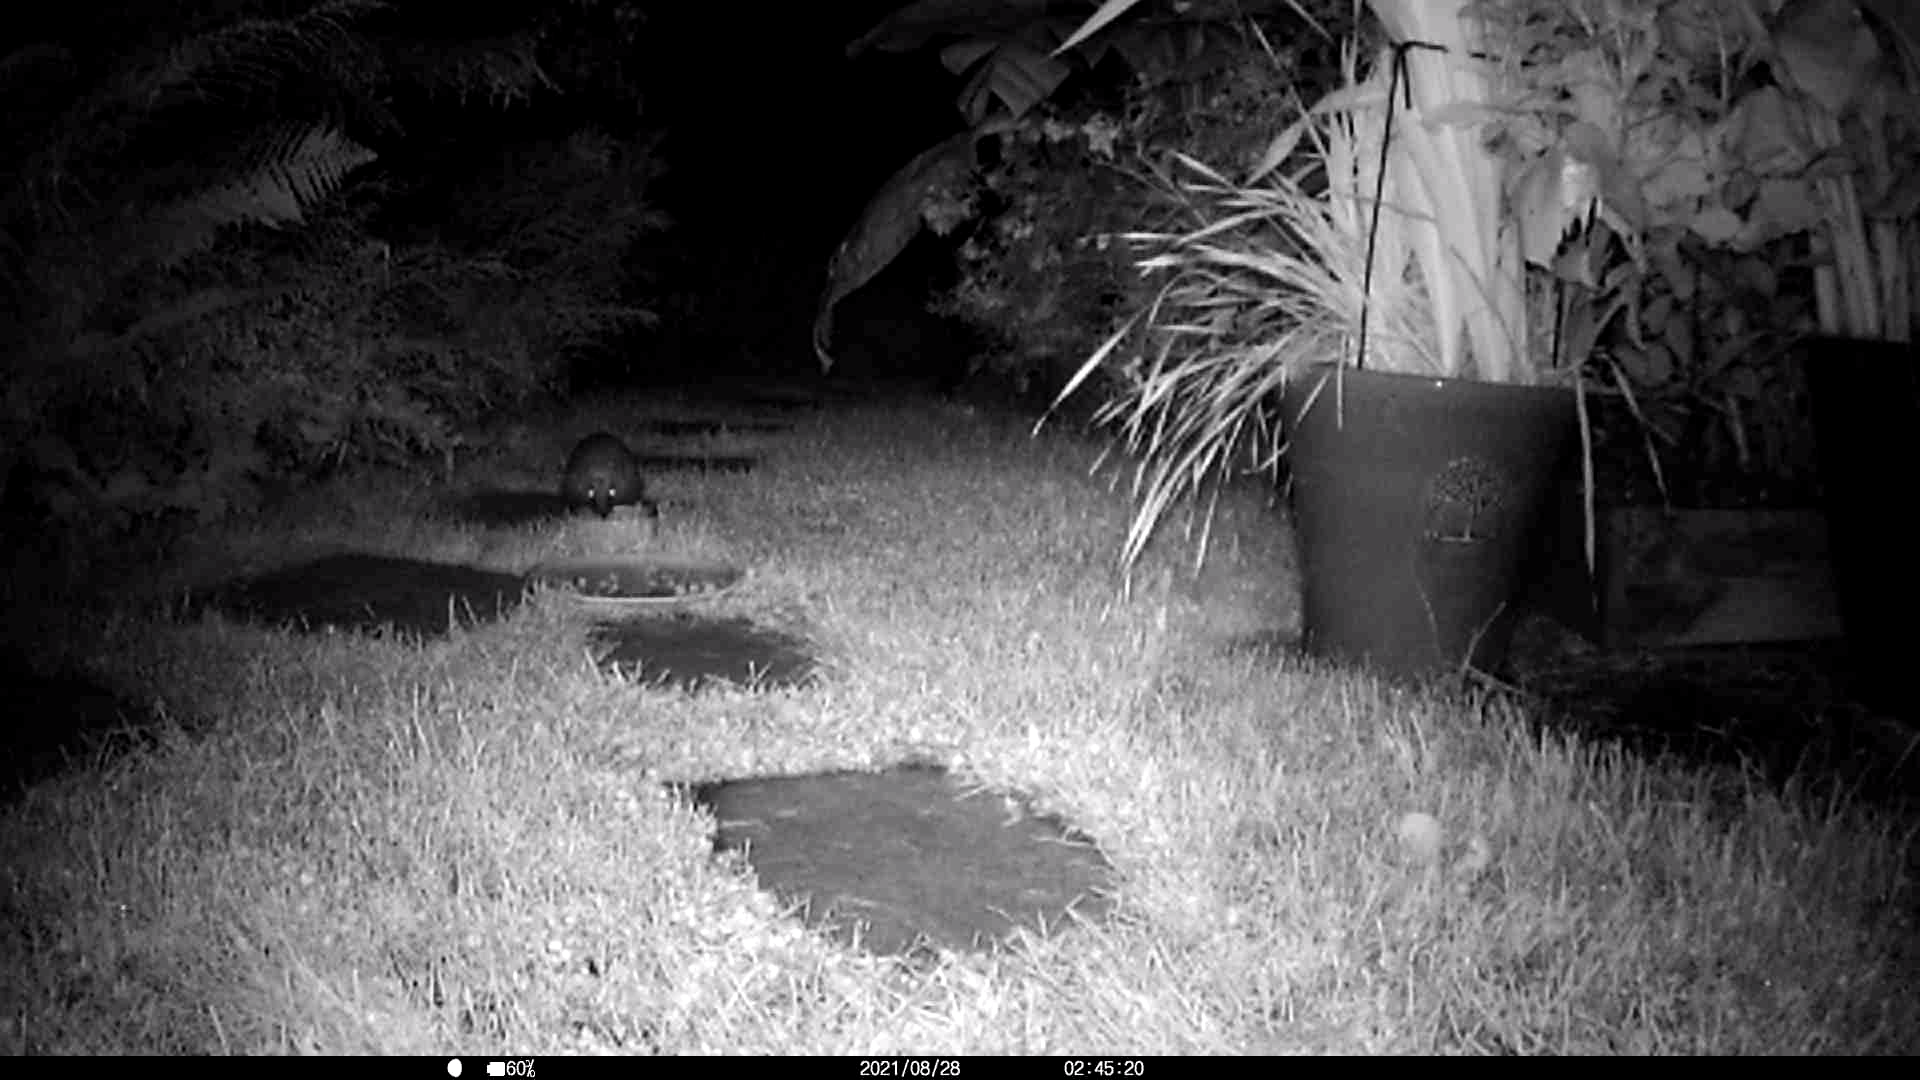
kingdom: Animalia
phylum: Chordata
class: Mammalia
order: Erinaceomorpha
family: Erinaceidae
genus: Erinaceus
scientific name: Erinaceus europaeus
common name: West european hedgehog
